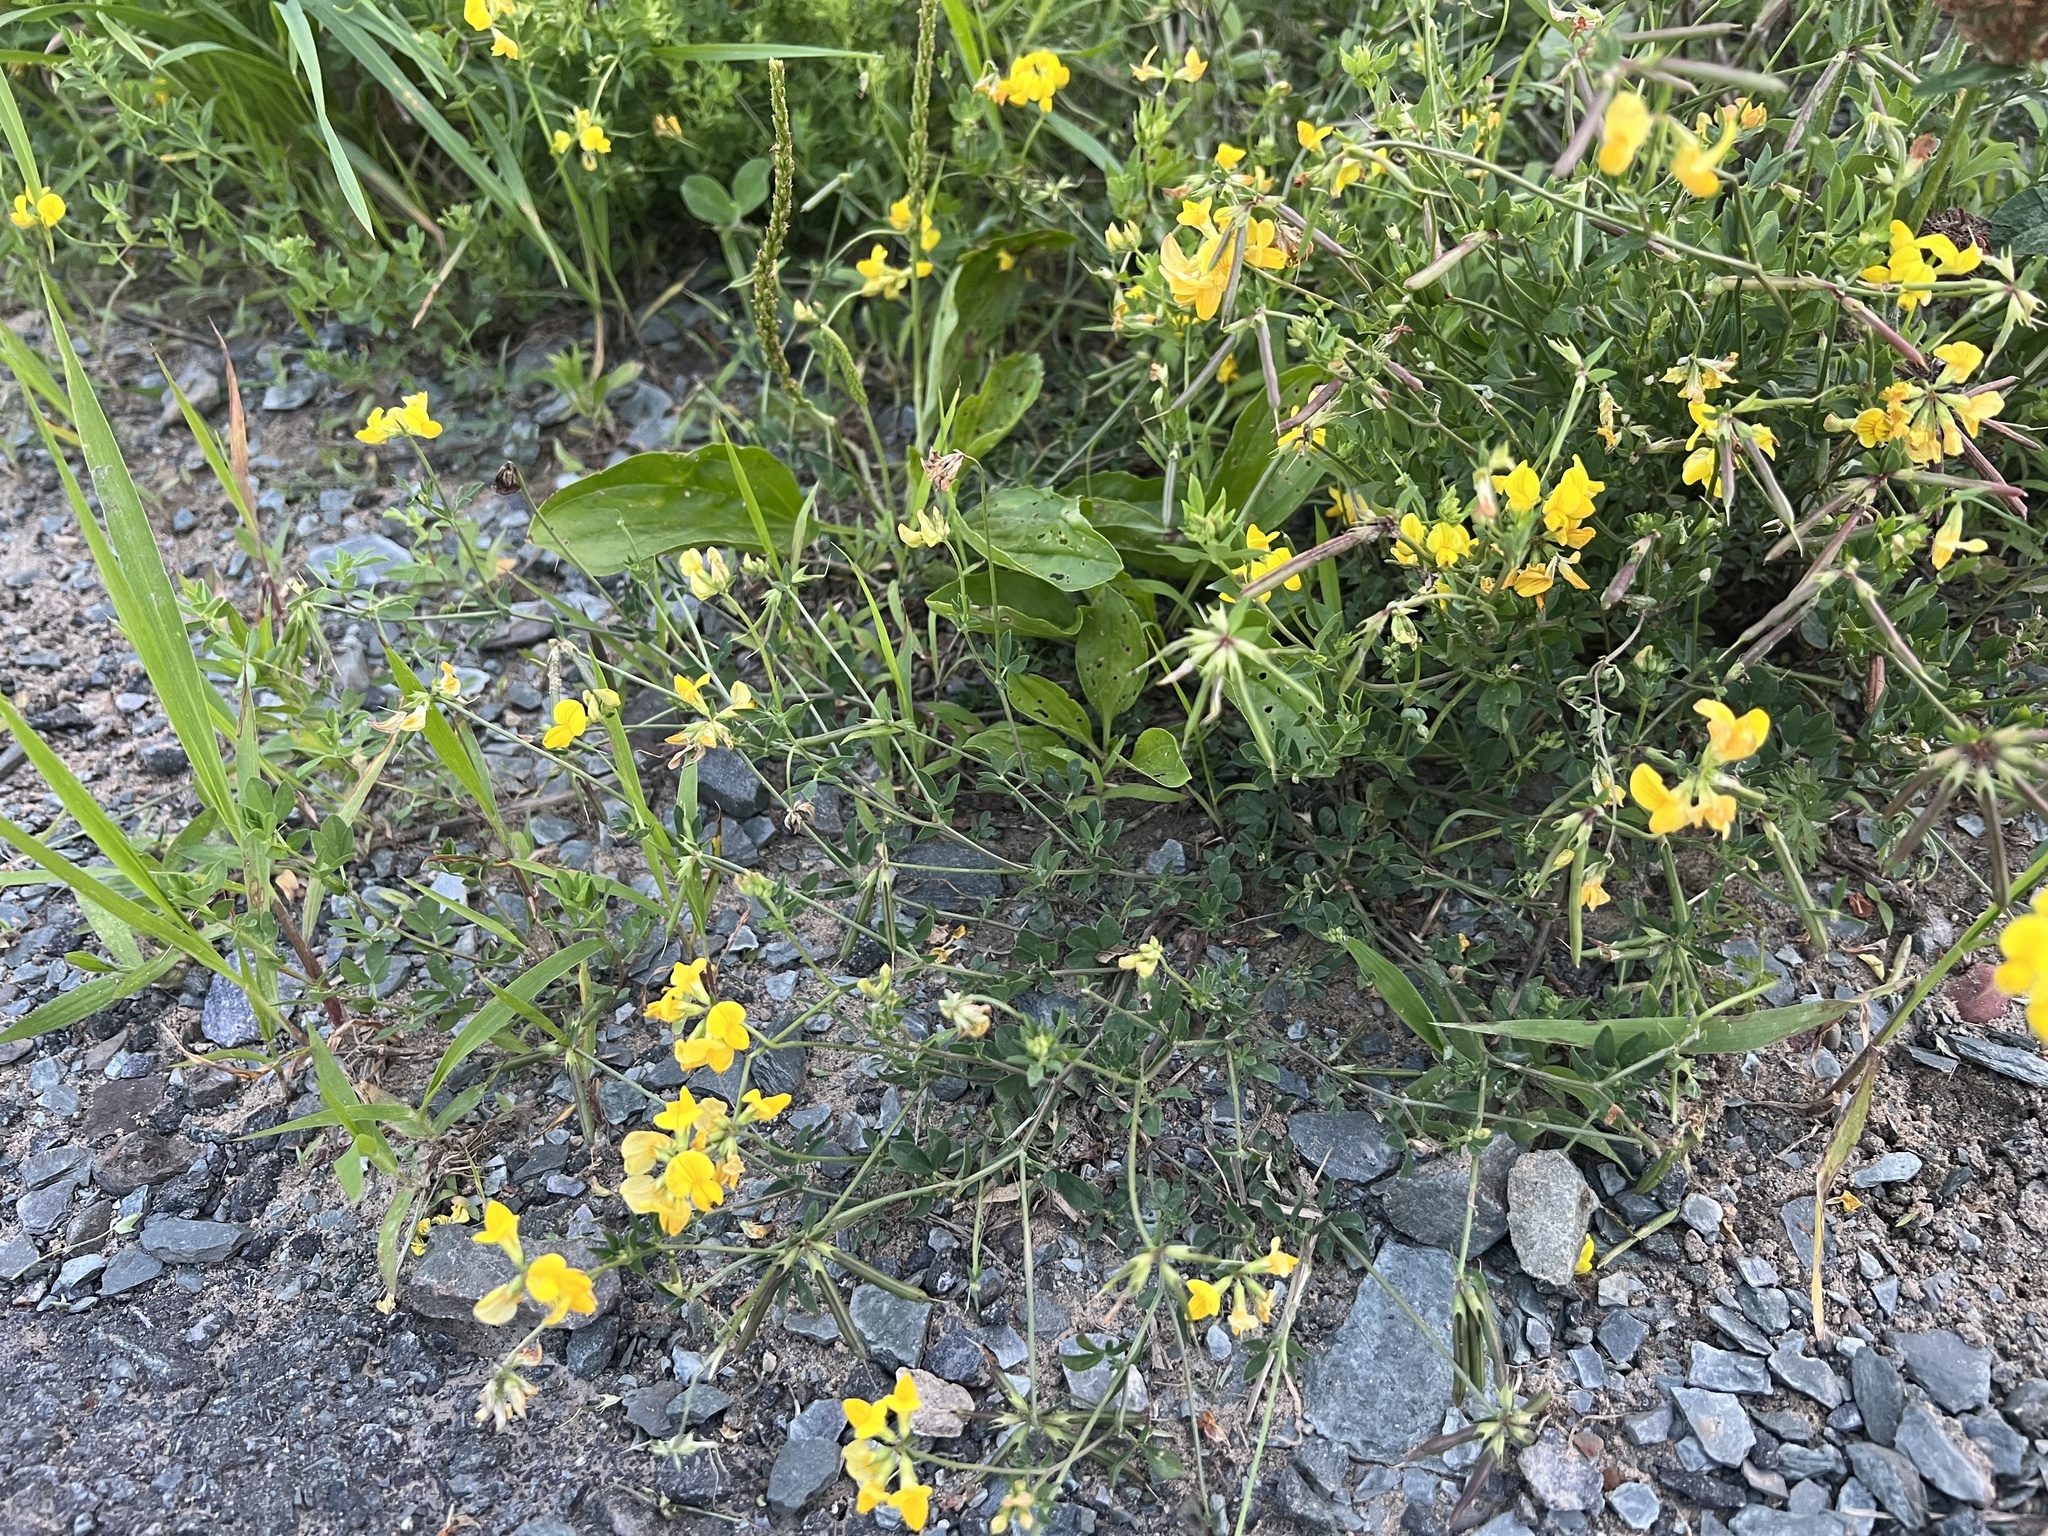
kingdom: Plantae
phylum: Tracheophyta
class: Magnoliopsida
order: Fabales
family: Fabaceae
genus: Lotus
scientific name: Lotus corniculatus
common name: Common bird's-foot-trefoil
